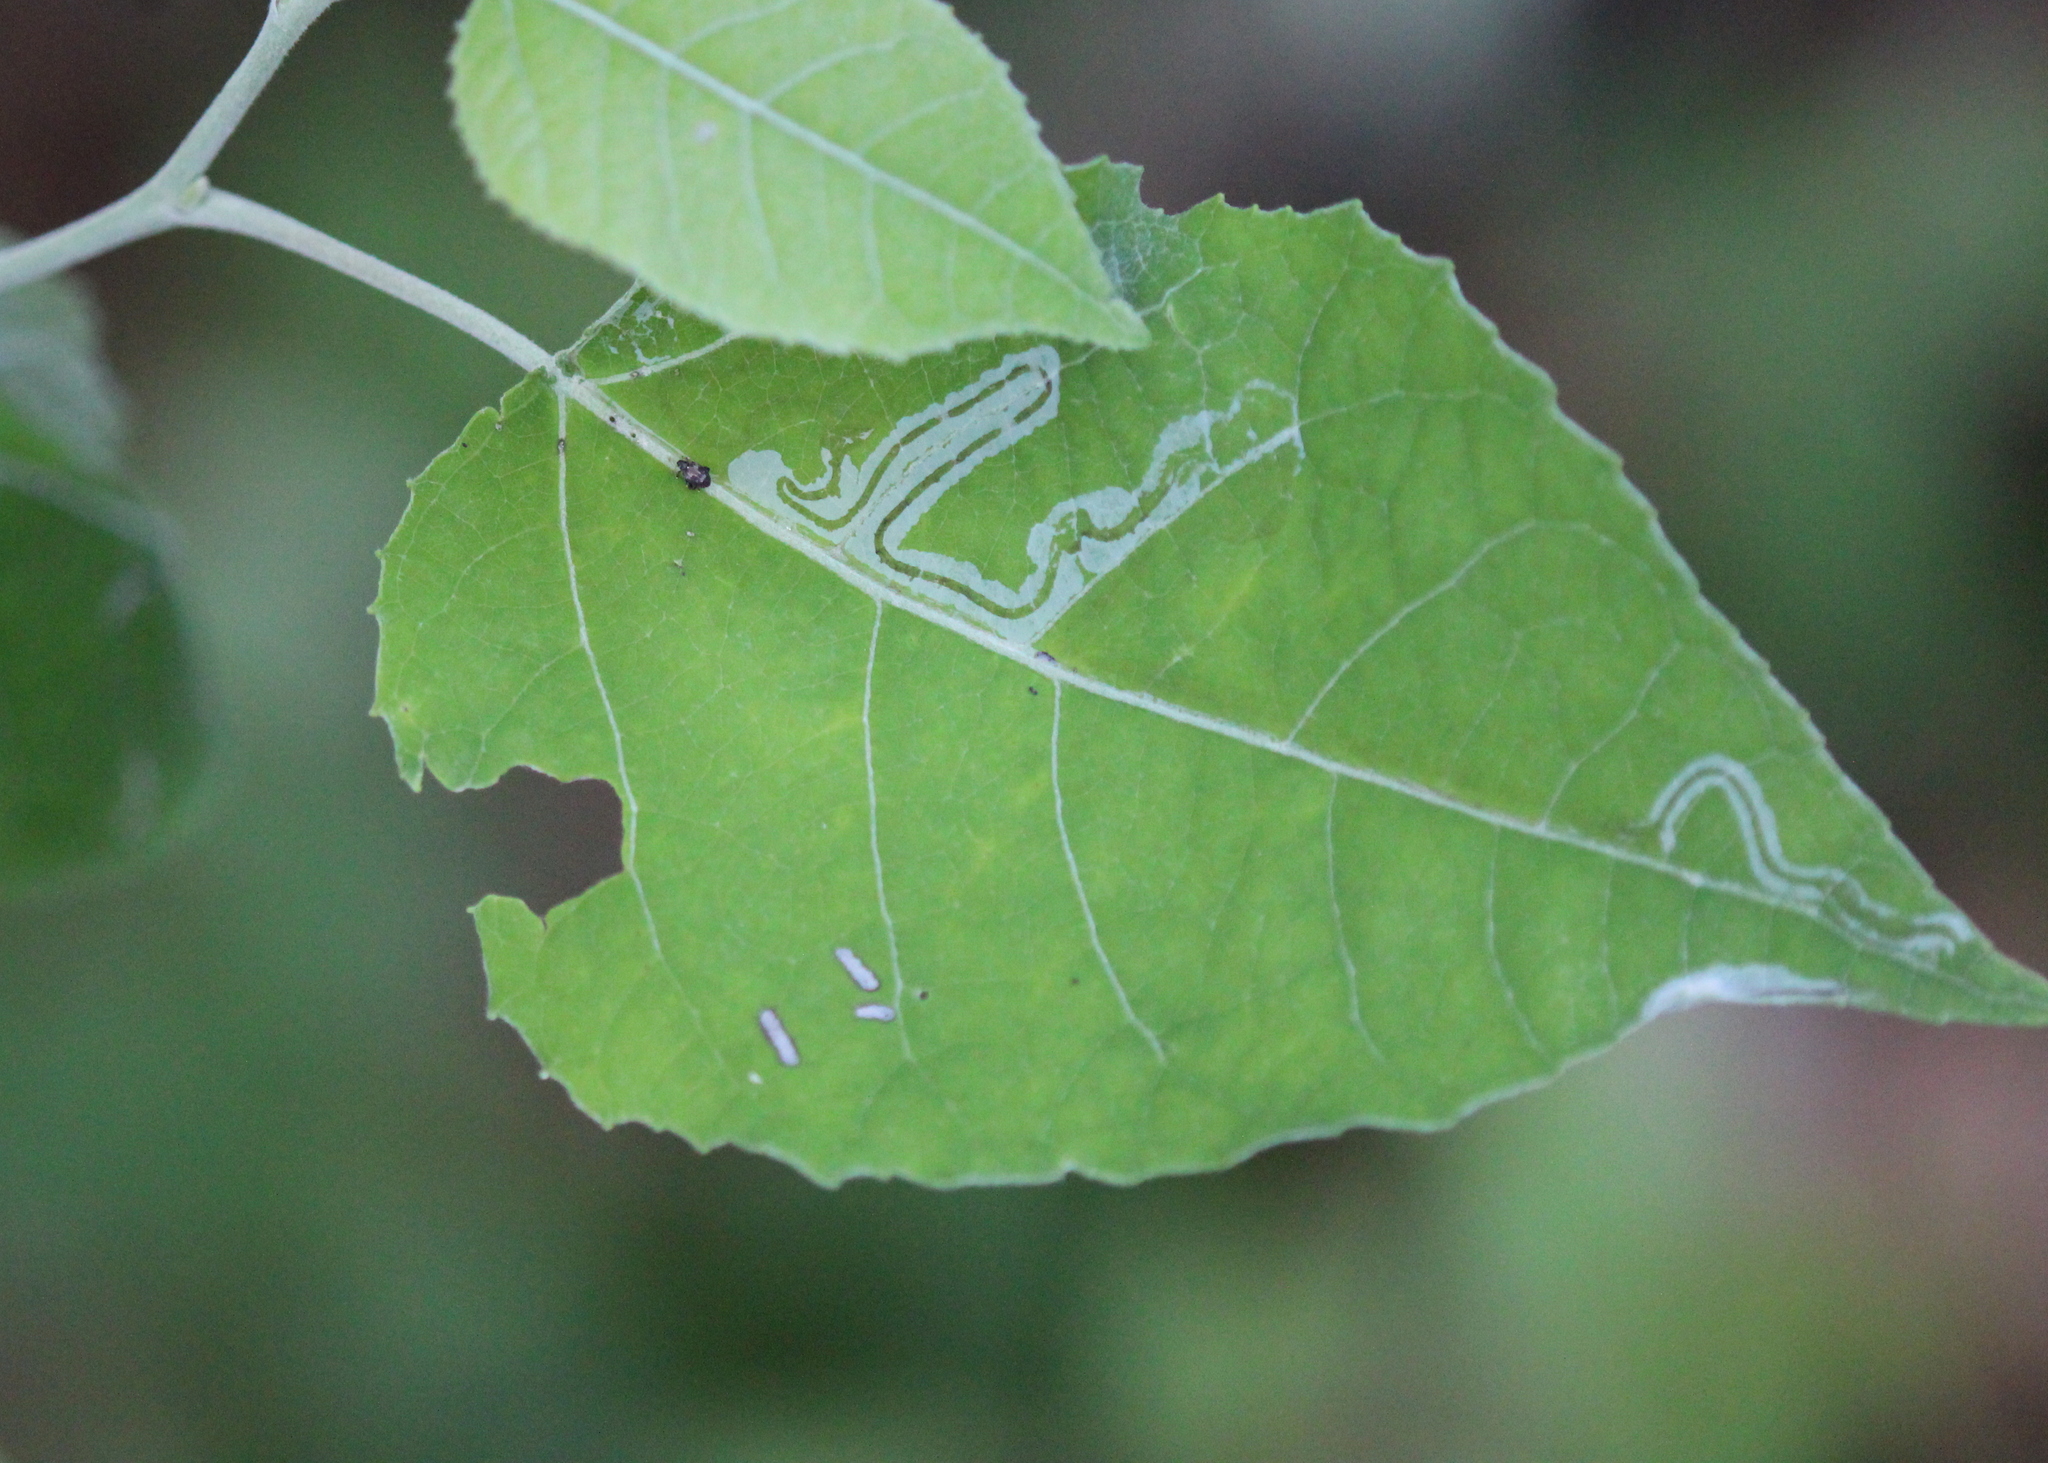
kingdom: Animalia
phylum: Arthropoda
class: Insecta
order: Lepidoptera
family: Gracillariidae
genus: Phyllocnistis
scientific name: Phyllocnistis populiella
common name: Aspen serpentine leafminer moth
